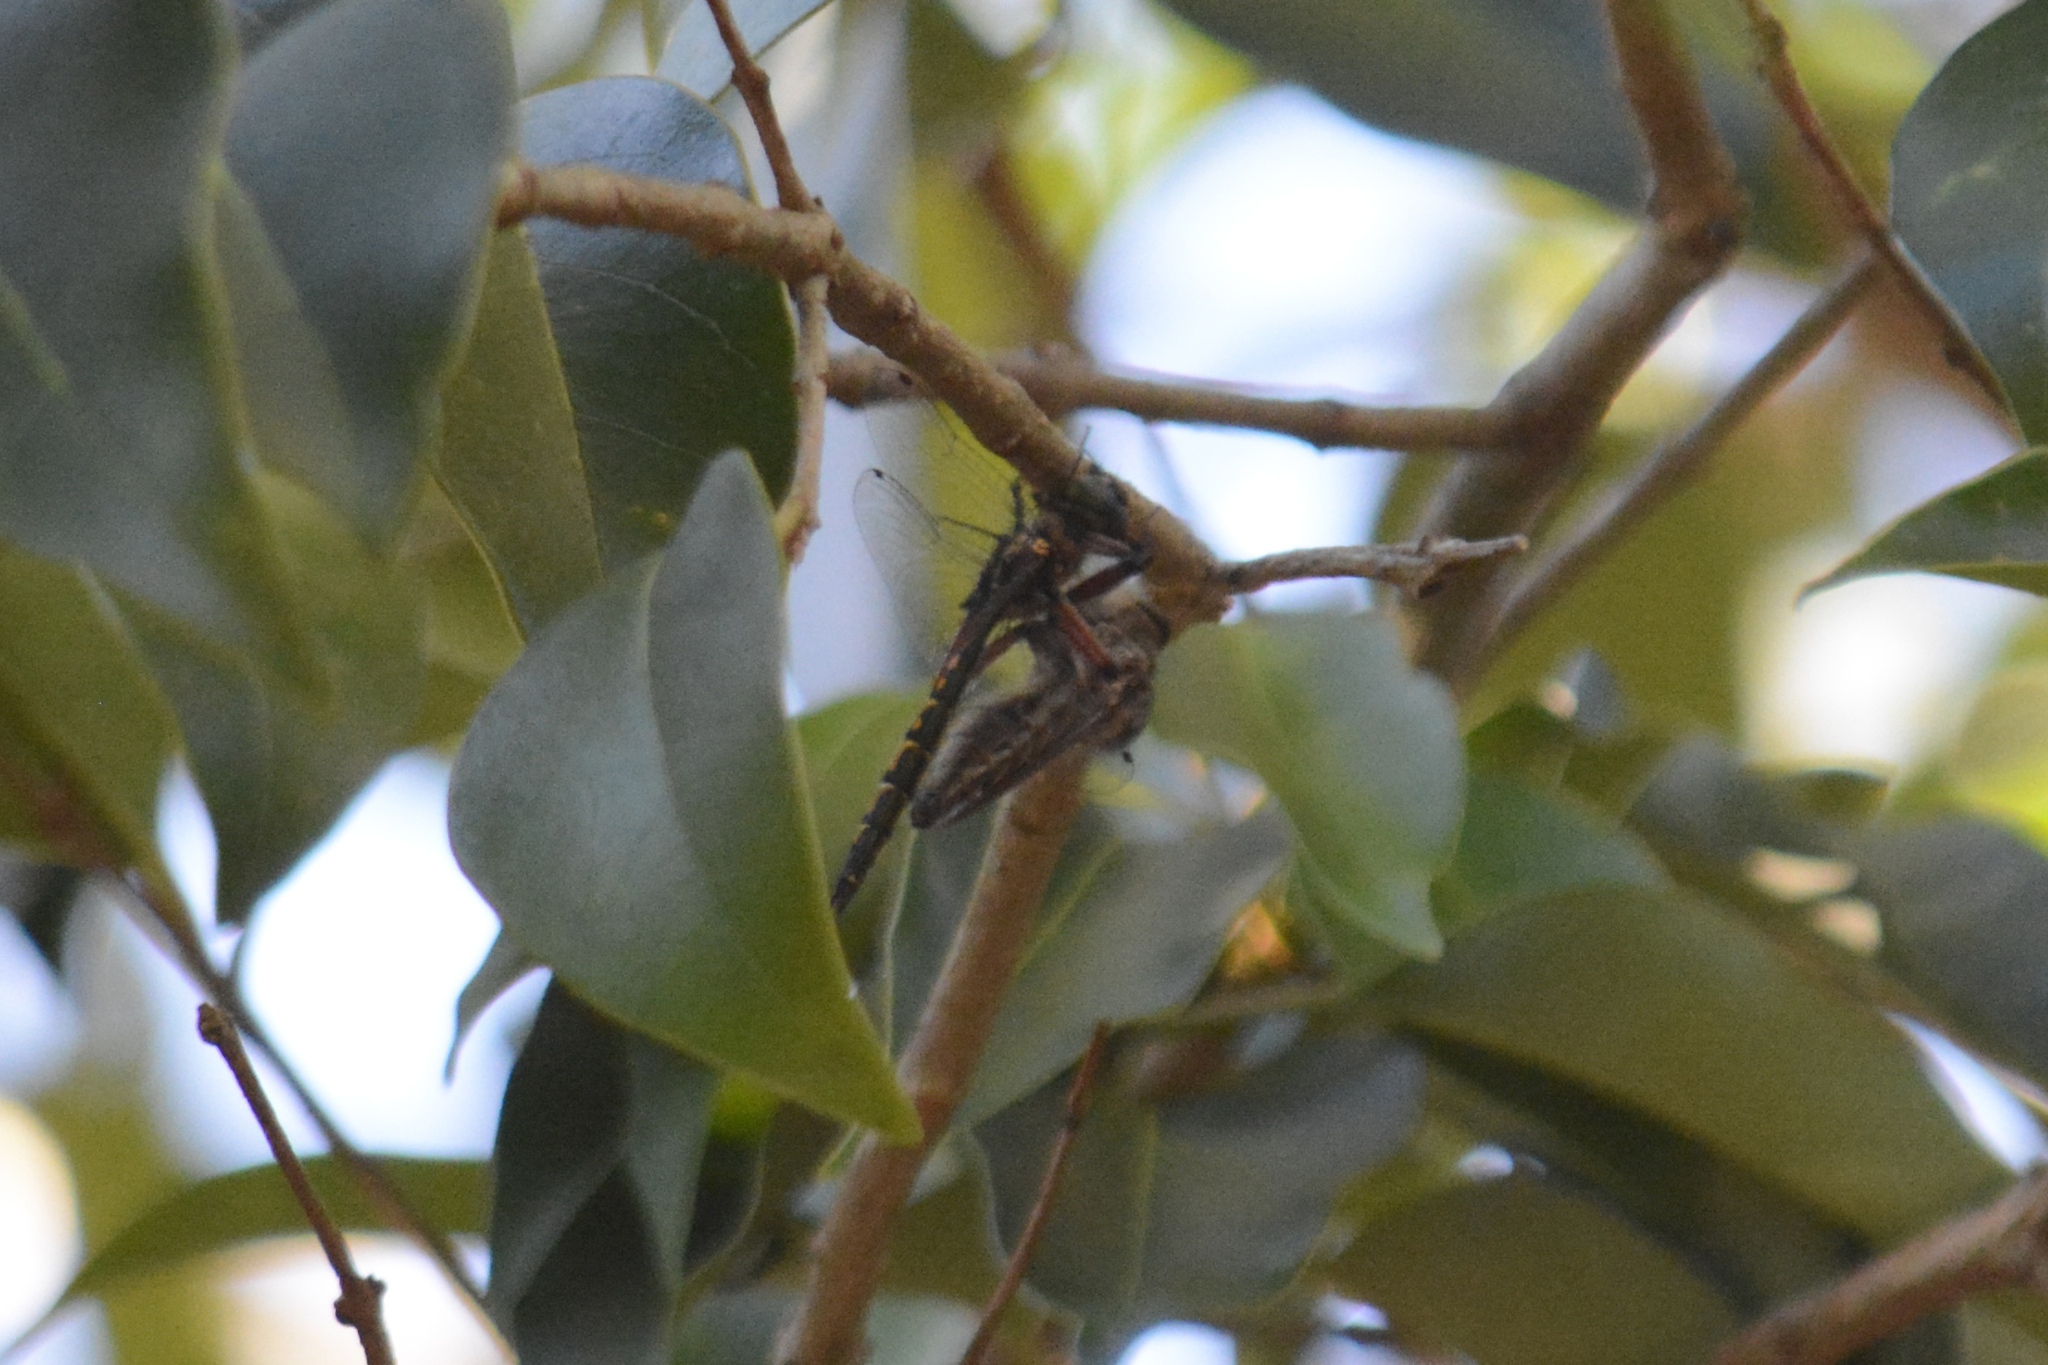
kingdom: Animalia
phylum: Arthropoda
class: Insecta
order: Odonata
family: Corduliidae
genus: Hemicordulia
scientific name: Hemicordulia australiae
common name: Sentry dragonfly
